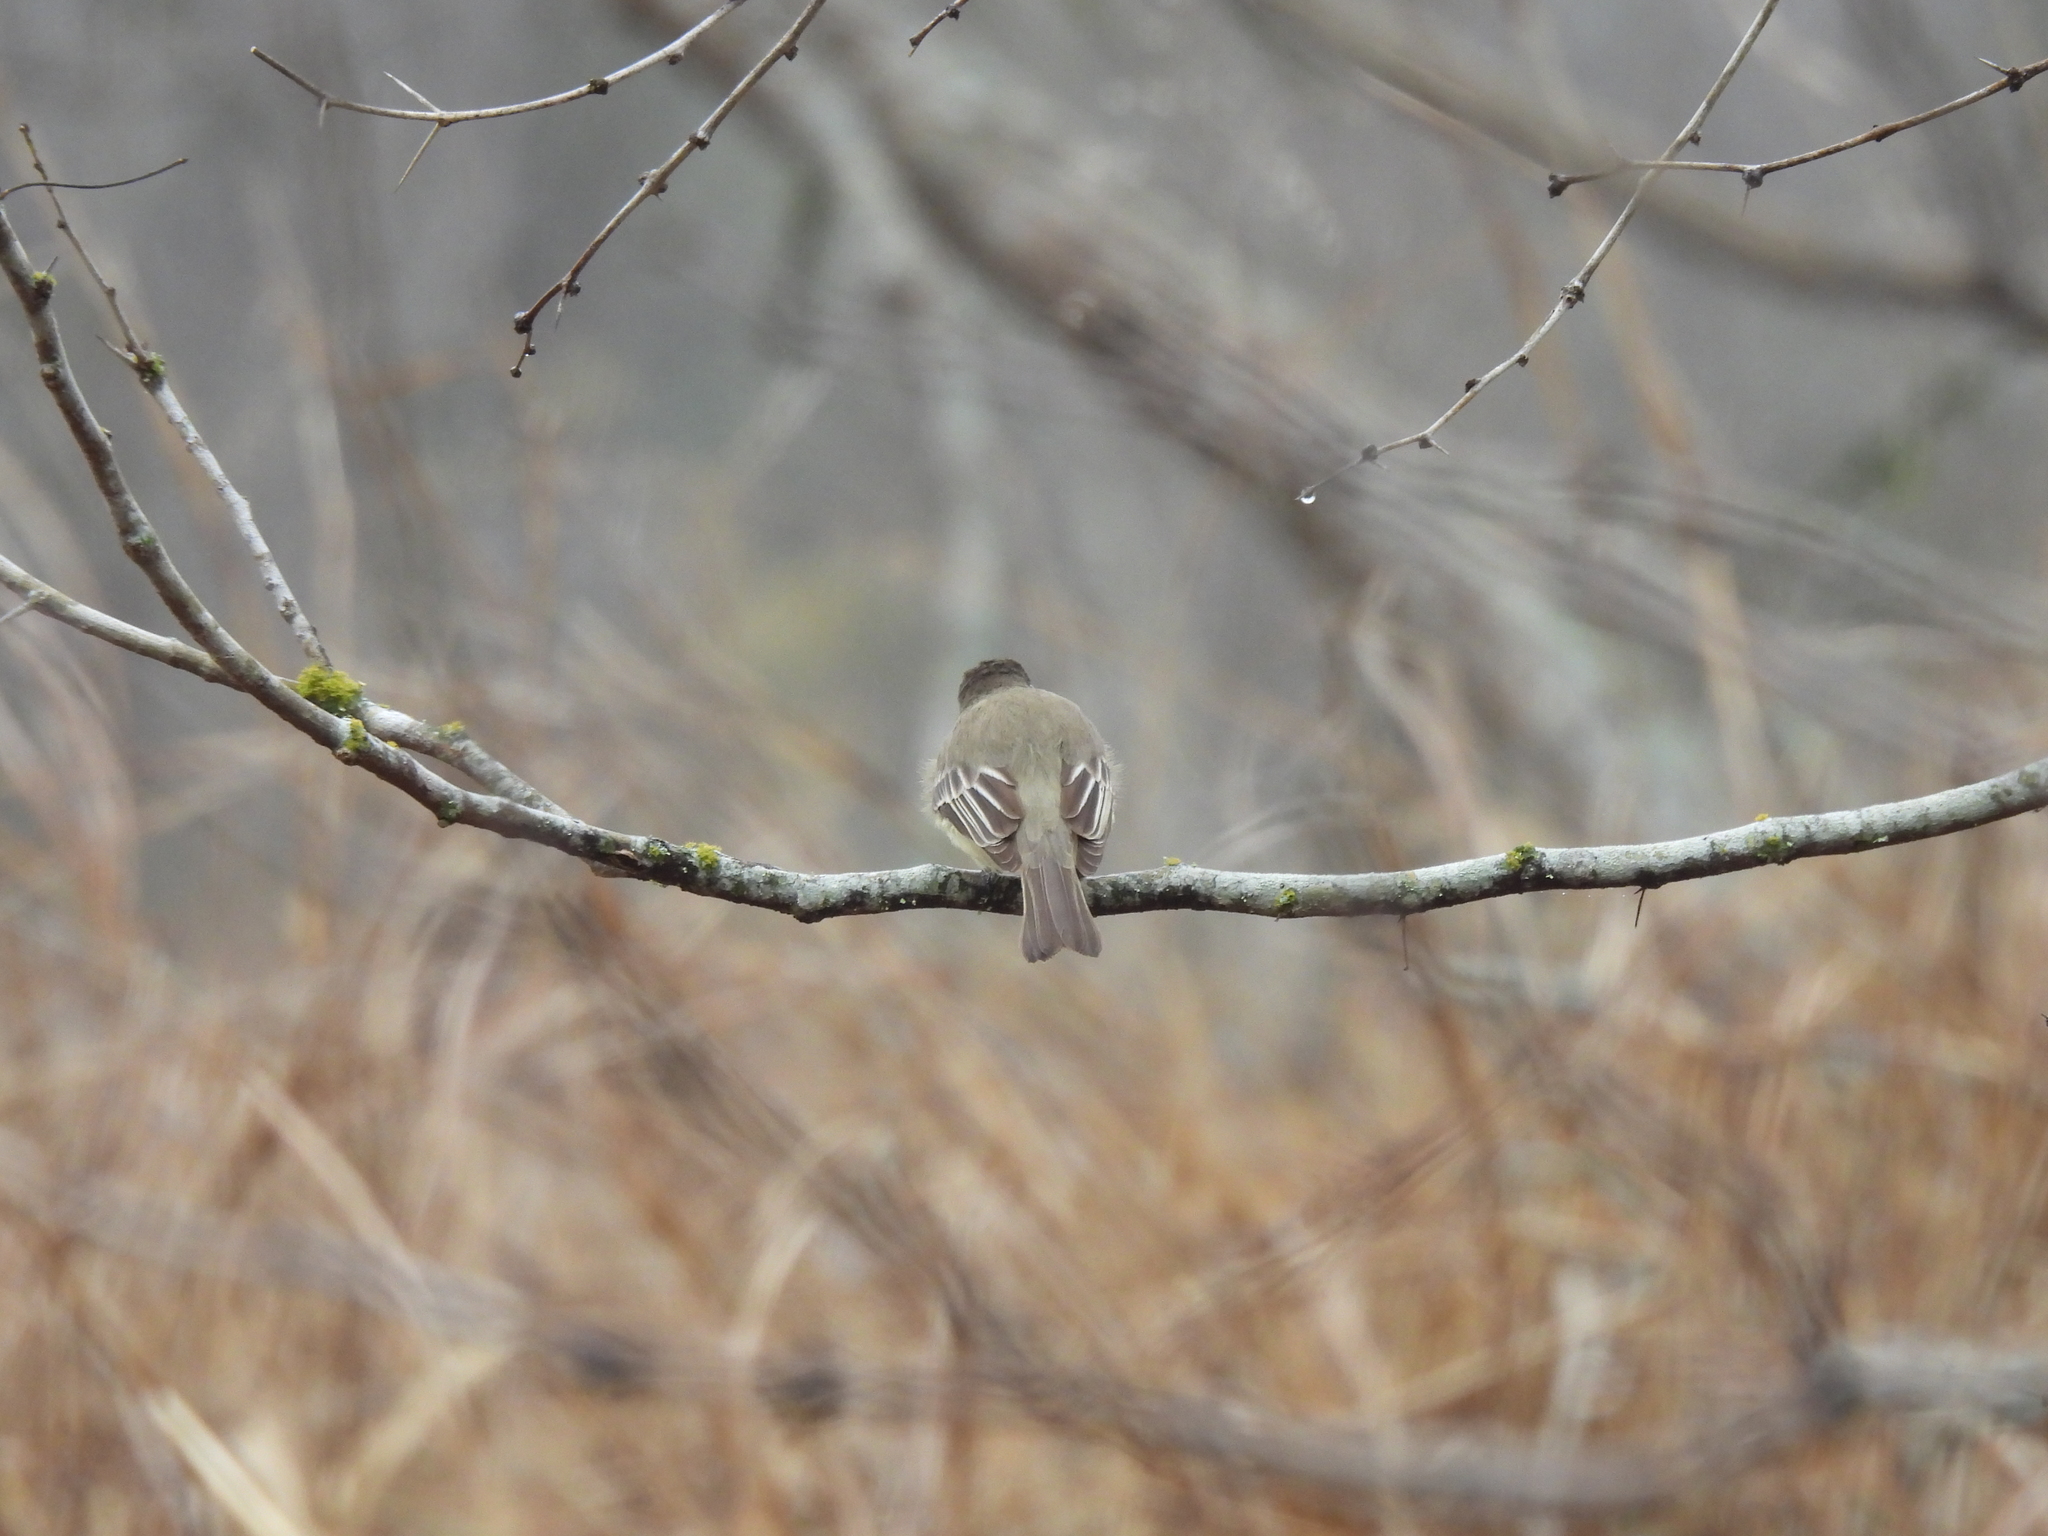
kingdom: Animalia
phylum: Chordata
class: Aves
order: Passeriformes
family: Tyrannidae
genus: Sayornis
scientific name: Sayornis phoebe
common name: Eastern phoebe
